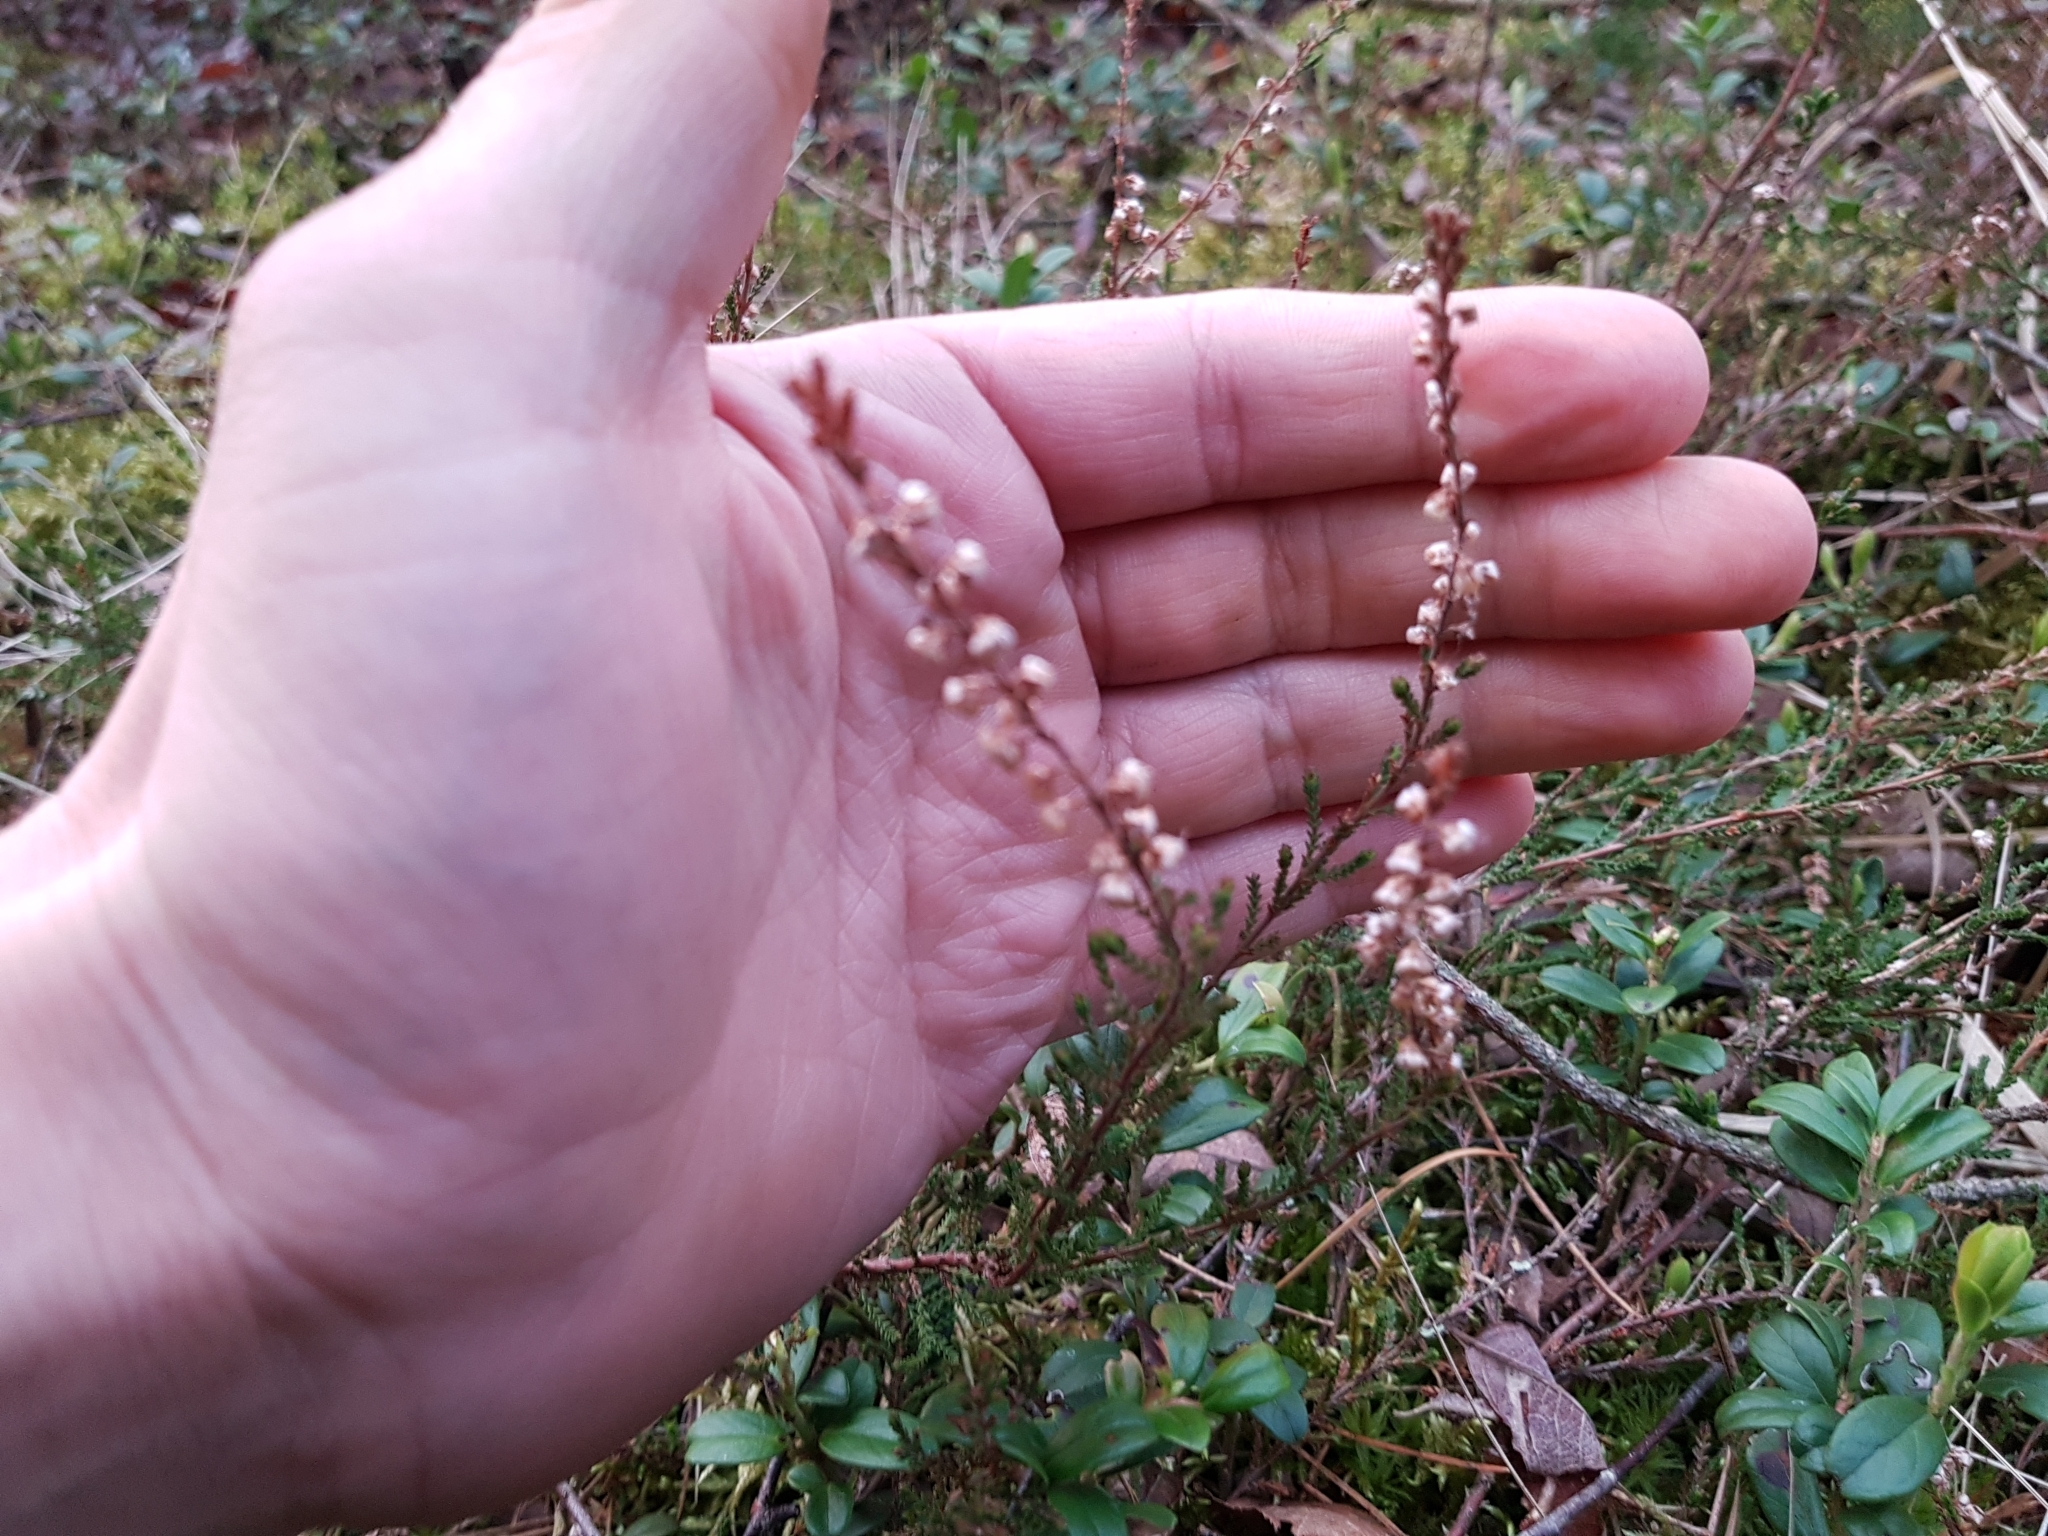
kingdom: Plantae
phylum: Tracheophyta
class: Magnoliopsida
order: Ericales
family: Ericaceae
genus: Calluna
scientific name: Calluna vulgaris
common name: Heather
